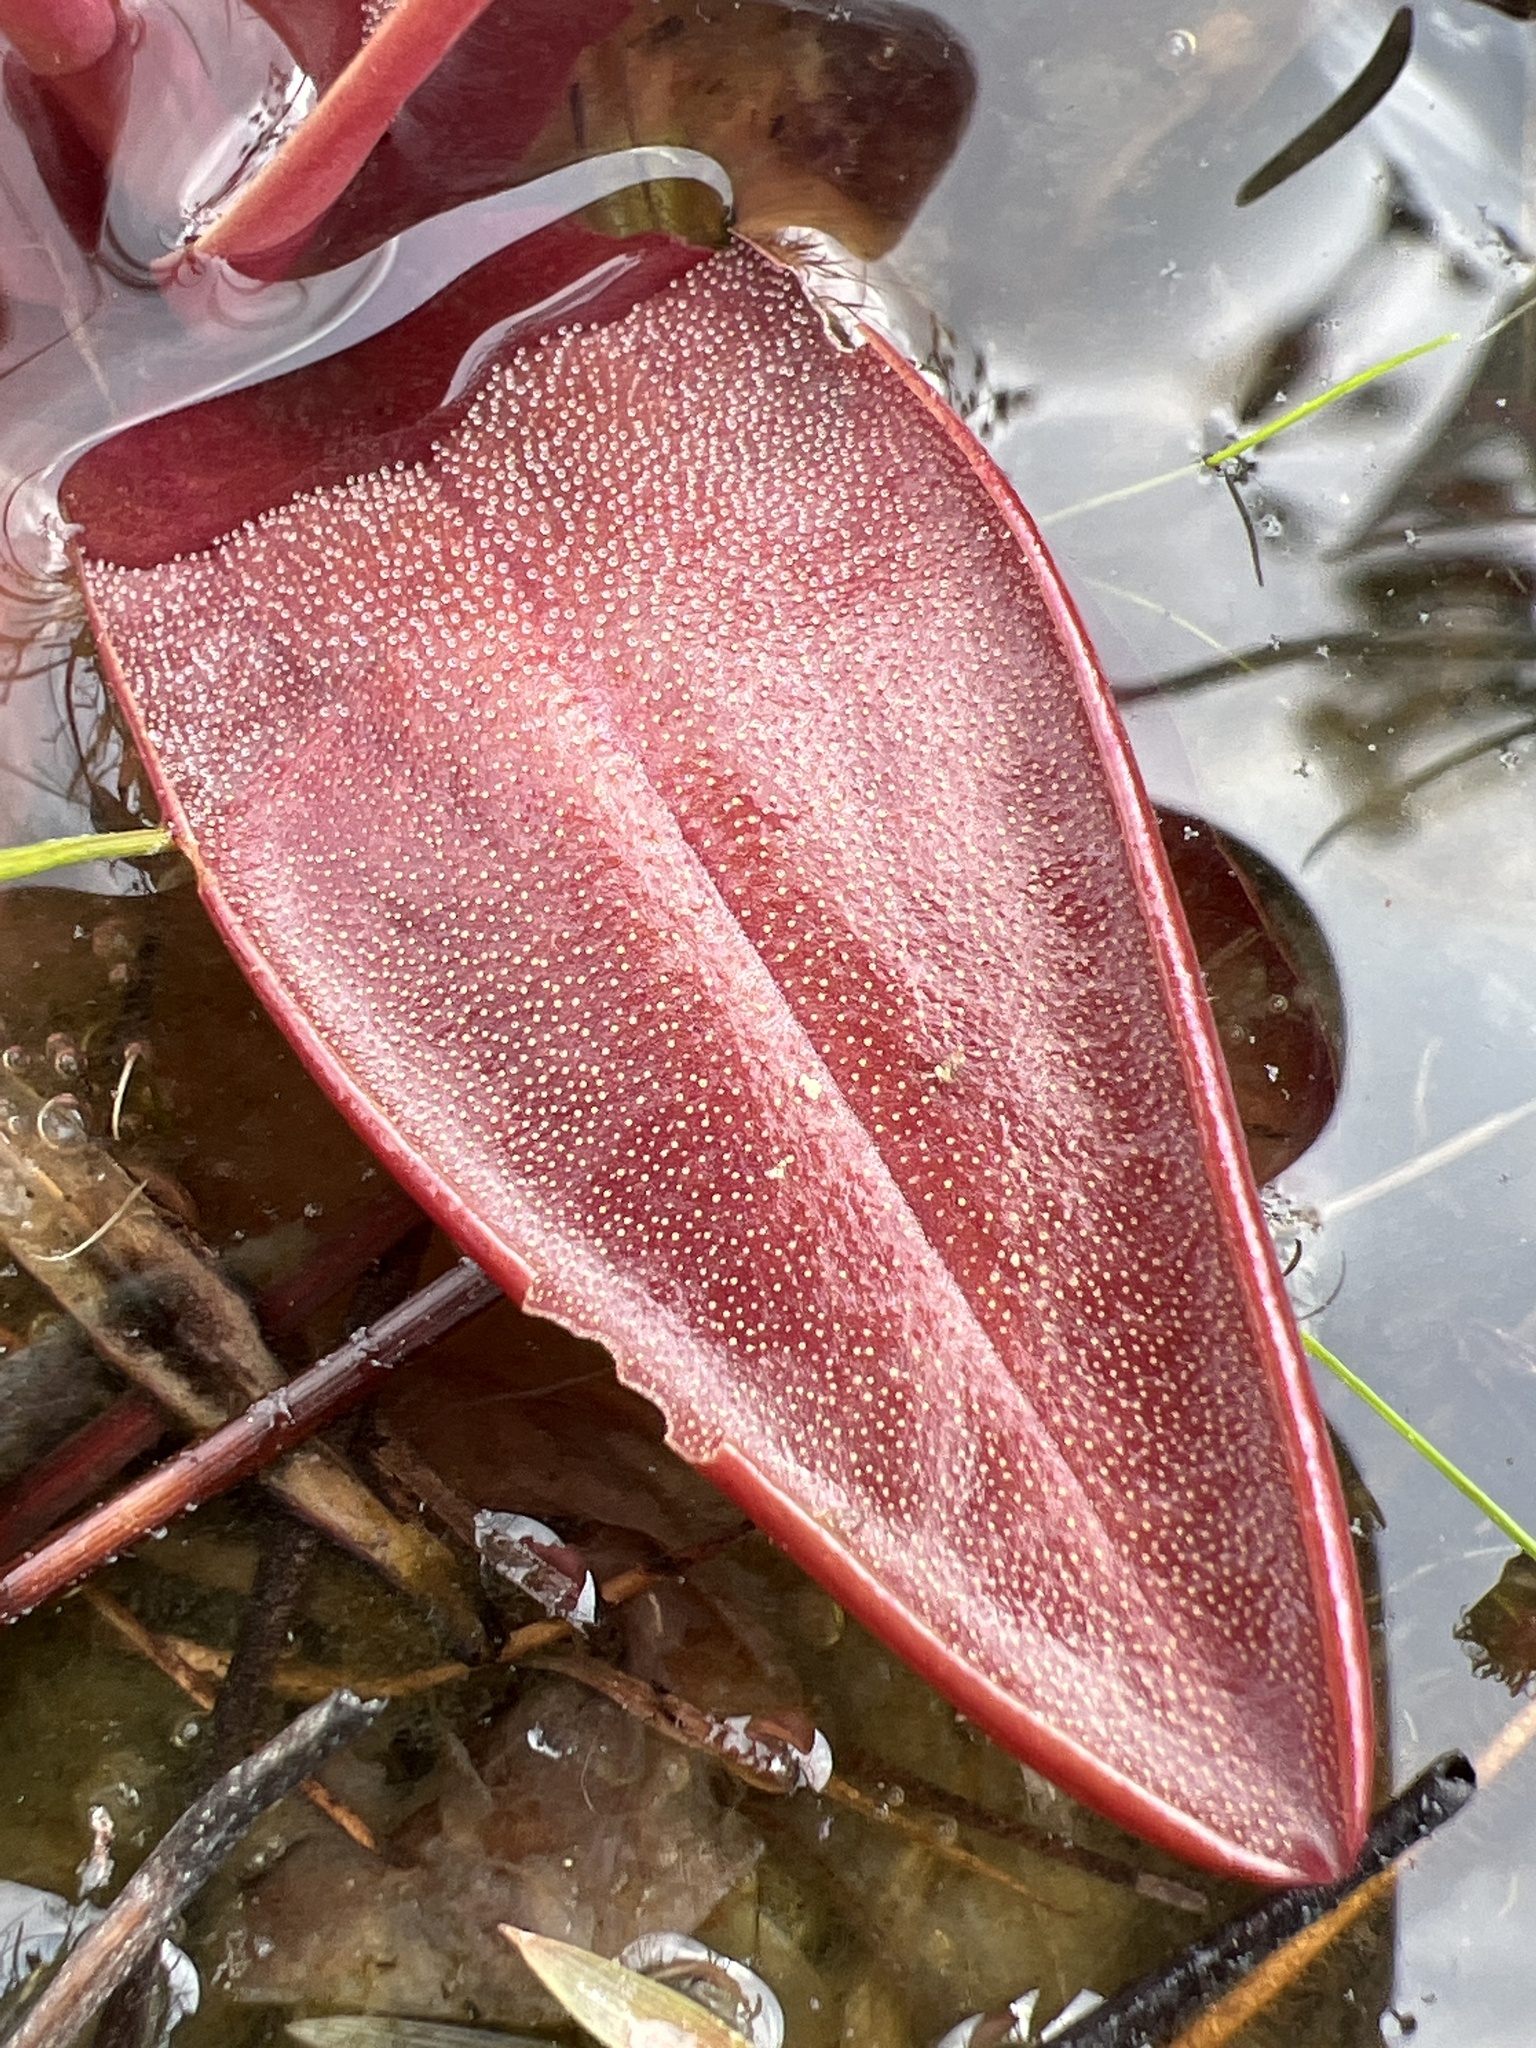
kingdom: Plantae
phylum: Tracheophyta
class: Magnoliopsida
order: Lamiales
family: Lentibulariaceae
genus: Pinguicula
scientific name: Pinguicula planifolia
